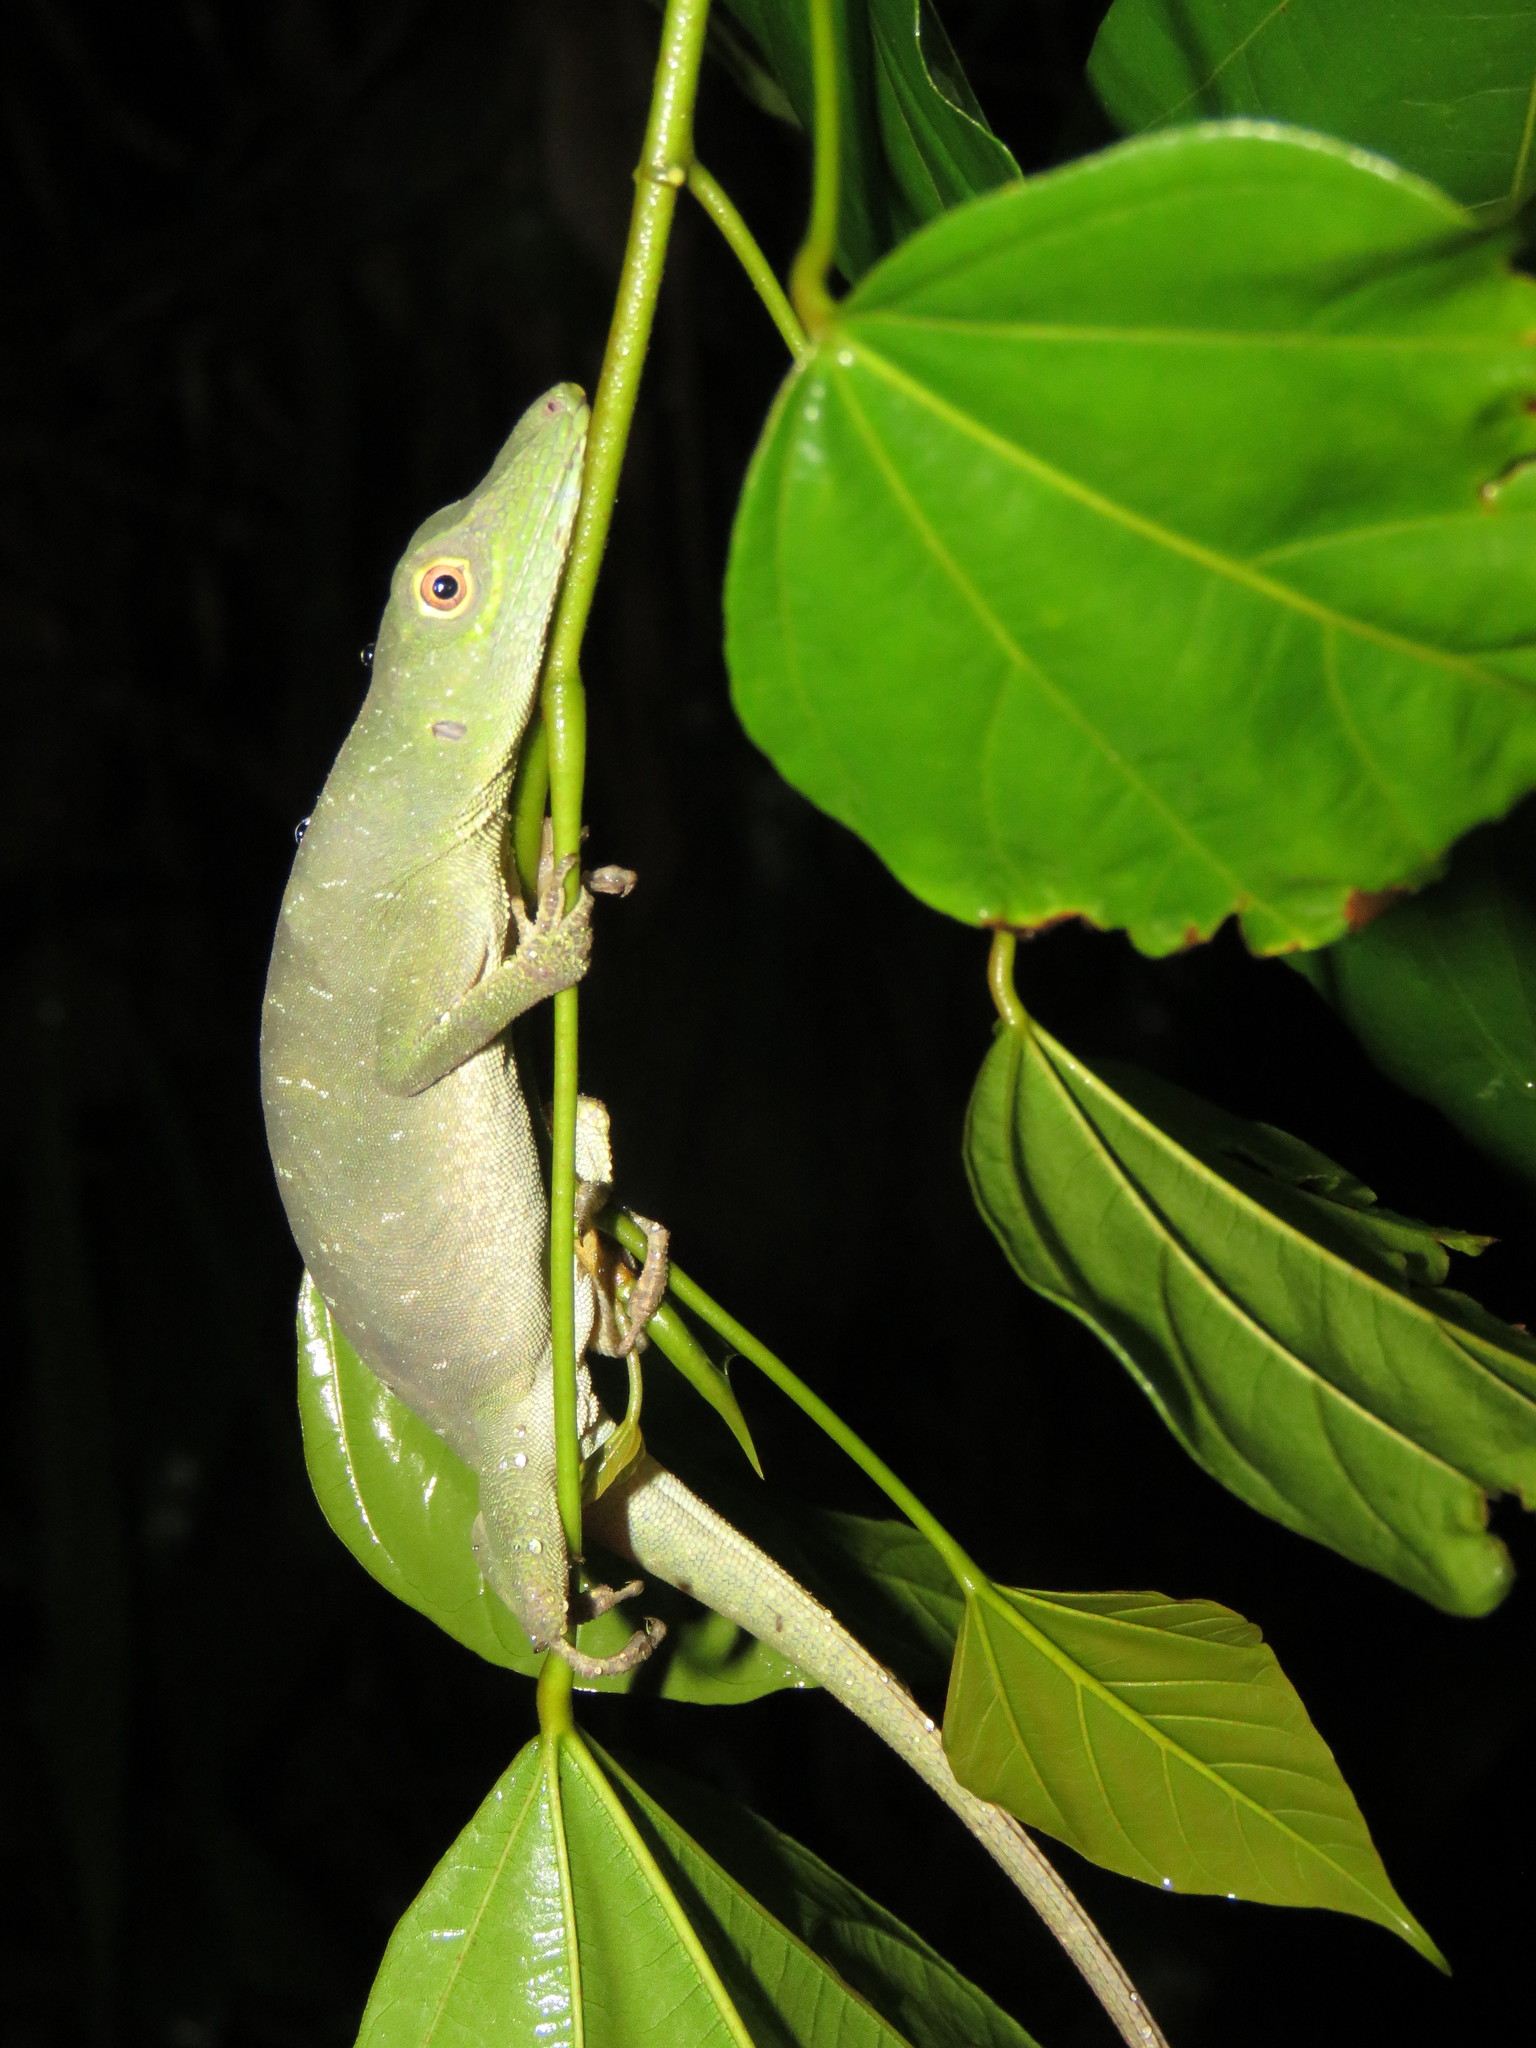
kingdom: Animalia
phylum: Chordata
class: Squamata
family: Dactyloidae
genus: Anolis
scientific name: Anolis punctatus
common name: Amazon green anole
